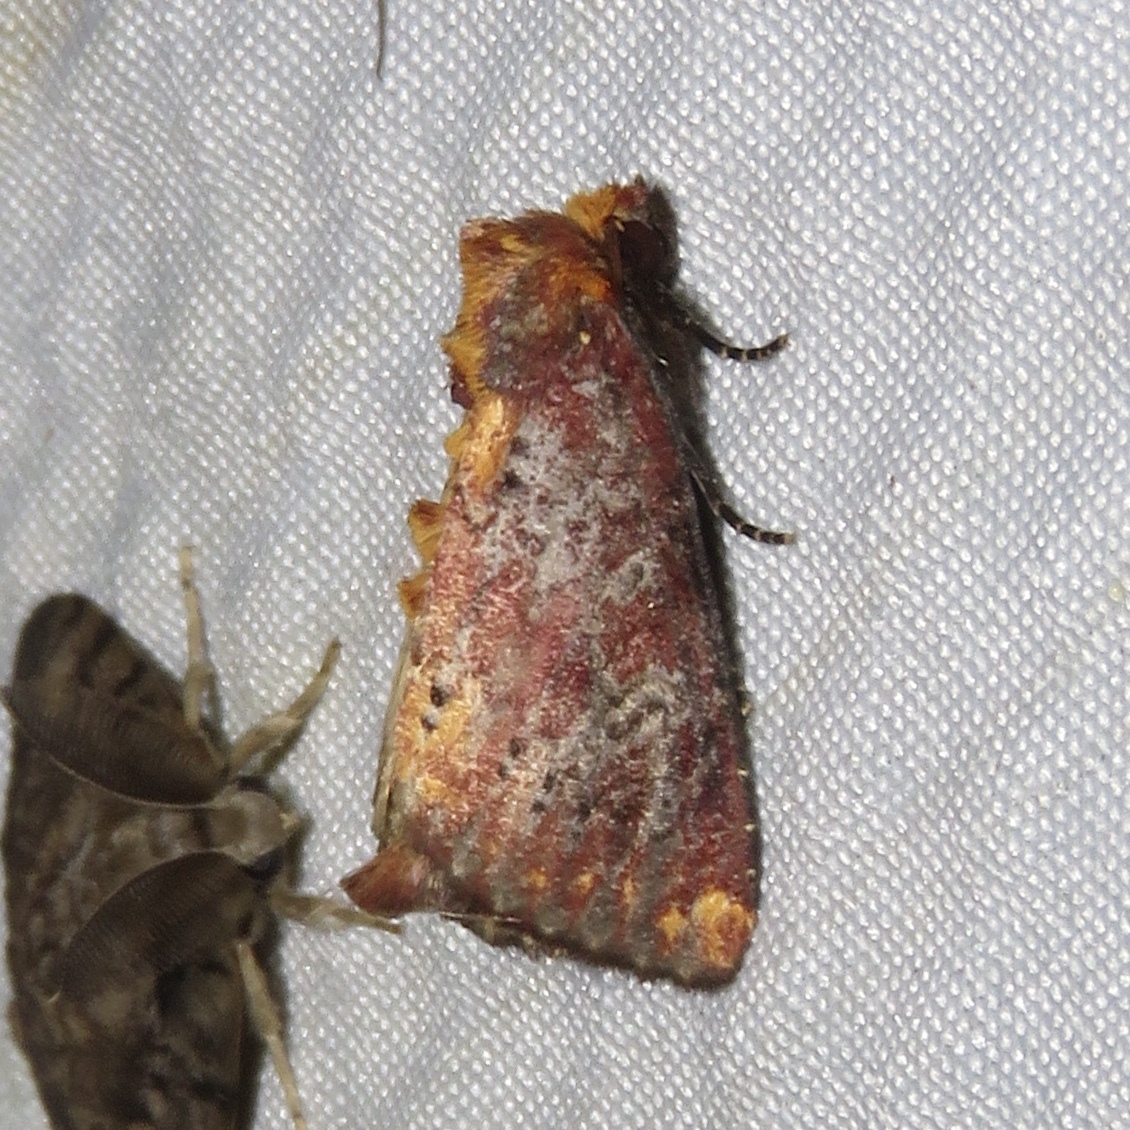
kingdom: Animalia
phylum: Arthropoda
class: Insecta
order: Lepidoptera
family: Noctuidae
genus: Achatodes
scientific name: Achatodes zeae
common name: Elder shoot borer
